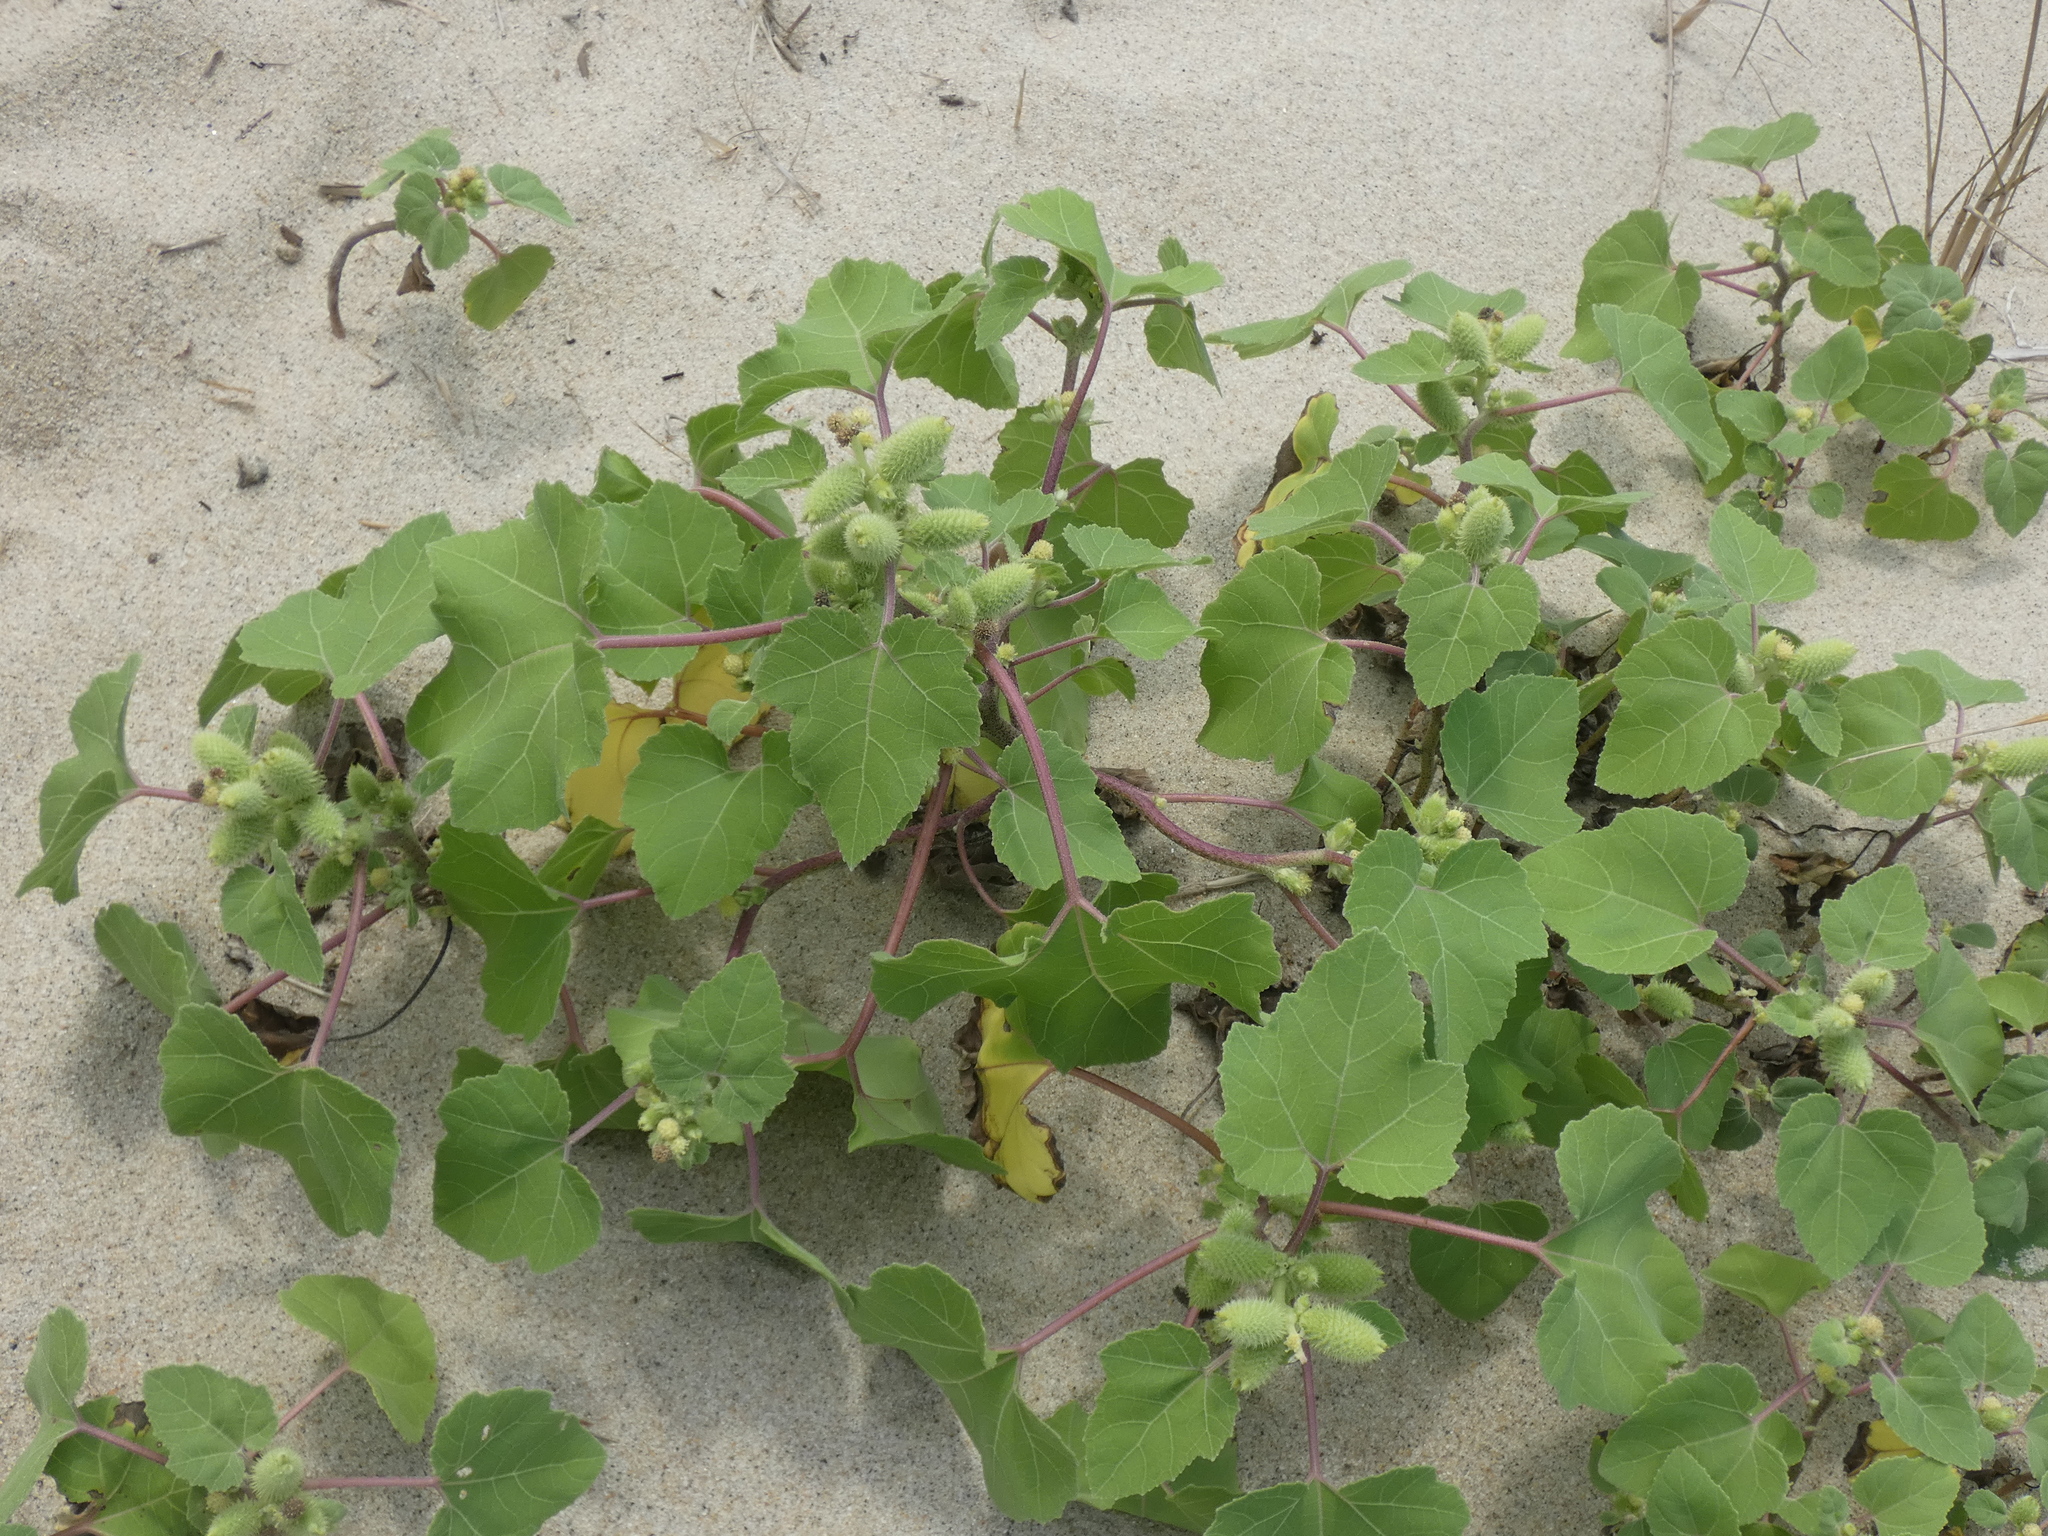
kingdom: Plantae
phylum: Tracheophyta
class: Magnoliopsida
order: Asterales
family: Asteraceae
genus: Xanthium
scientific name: Xanthium strumarium
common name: Rough cocklebur
